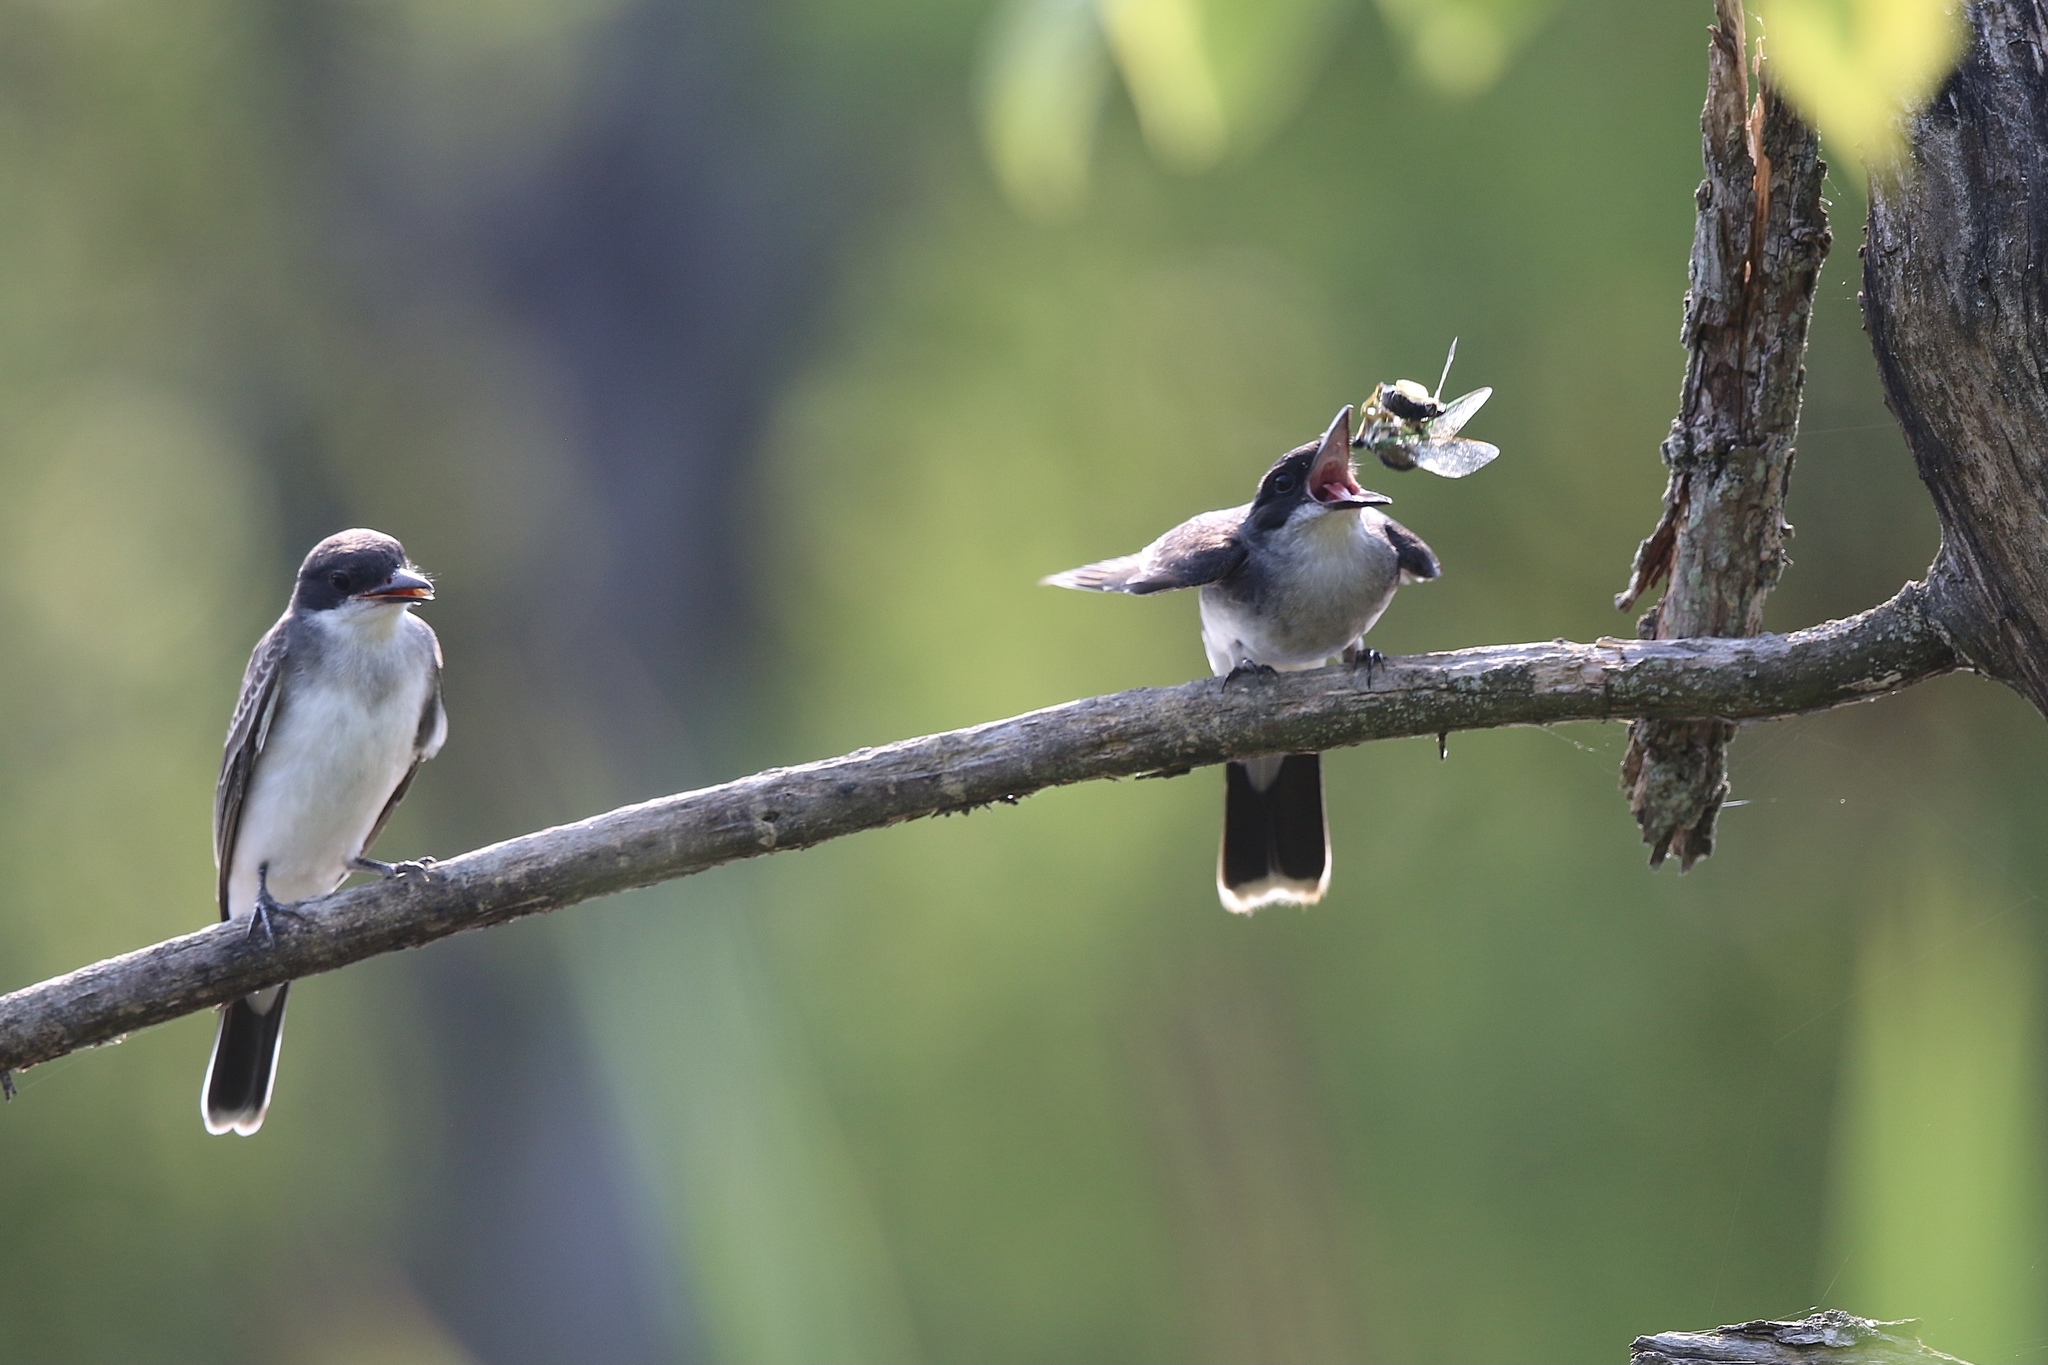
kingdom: Animalia
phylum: Chordata
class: Aves
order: Passeriformes
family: Tyrannidae
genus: Tyrannus
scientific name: Tyrannus tyrannus
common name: Eastern kingbird
